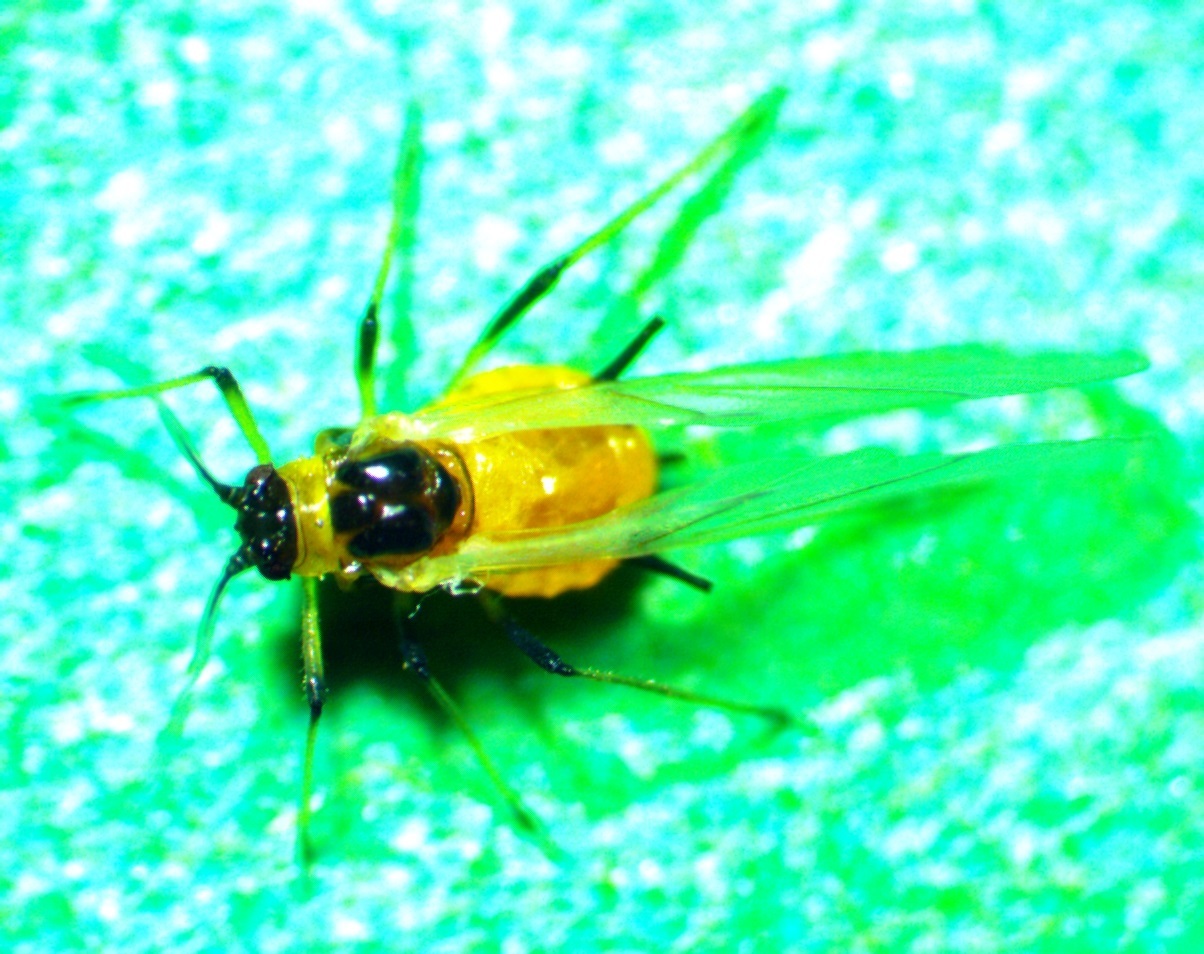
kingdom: Animalia
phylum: Arthropoda
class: Insecta
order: Hemiptera
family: Aphididae
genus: Aphis
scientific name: Aphis nerii
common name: Oleander aphid
